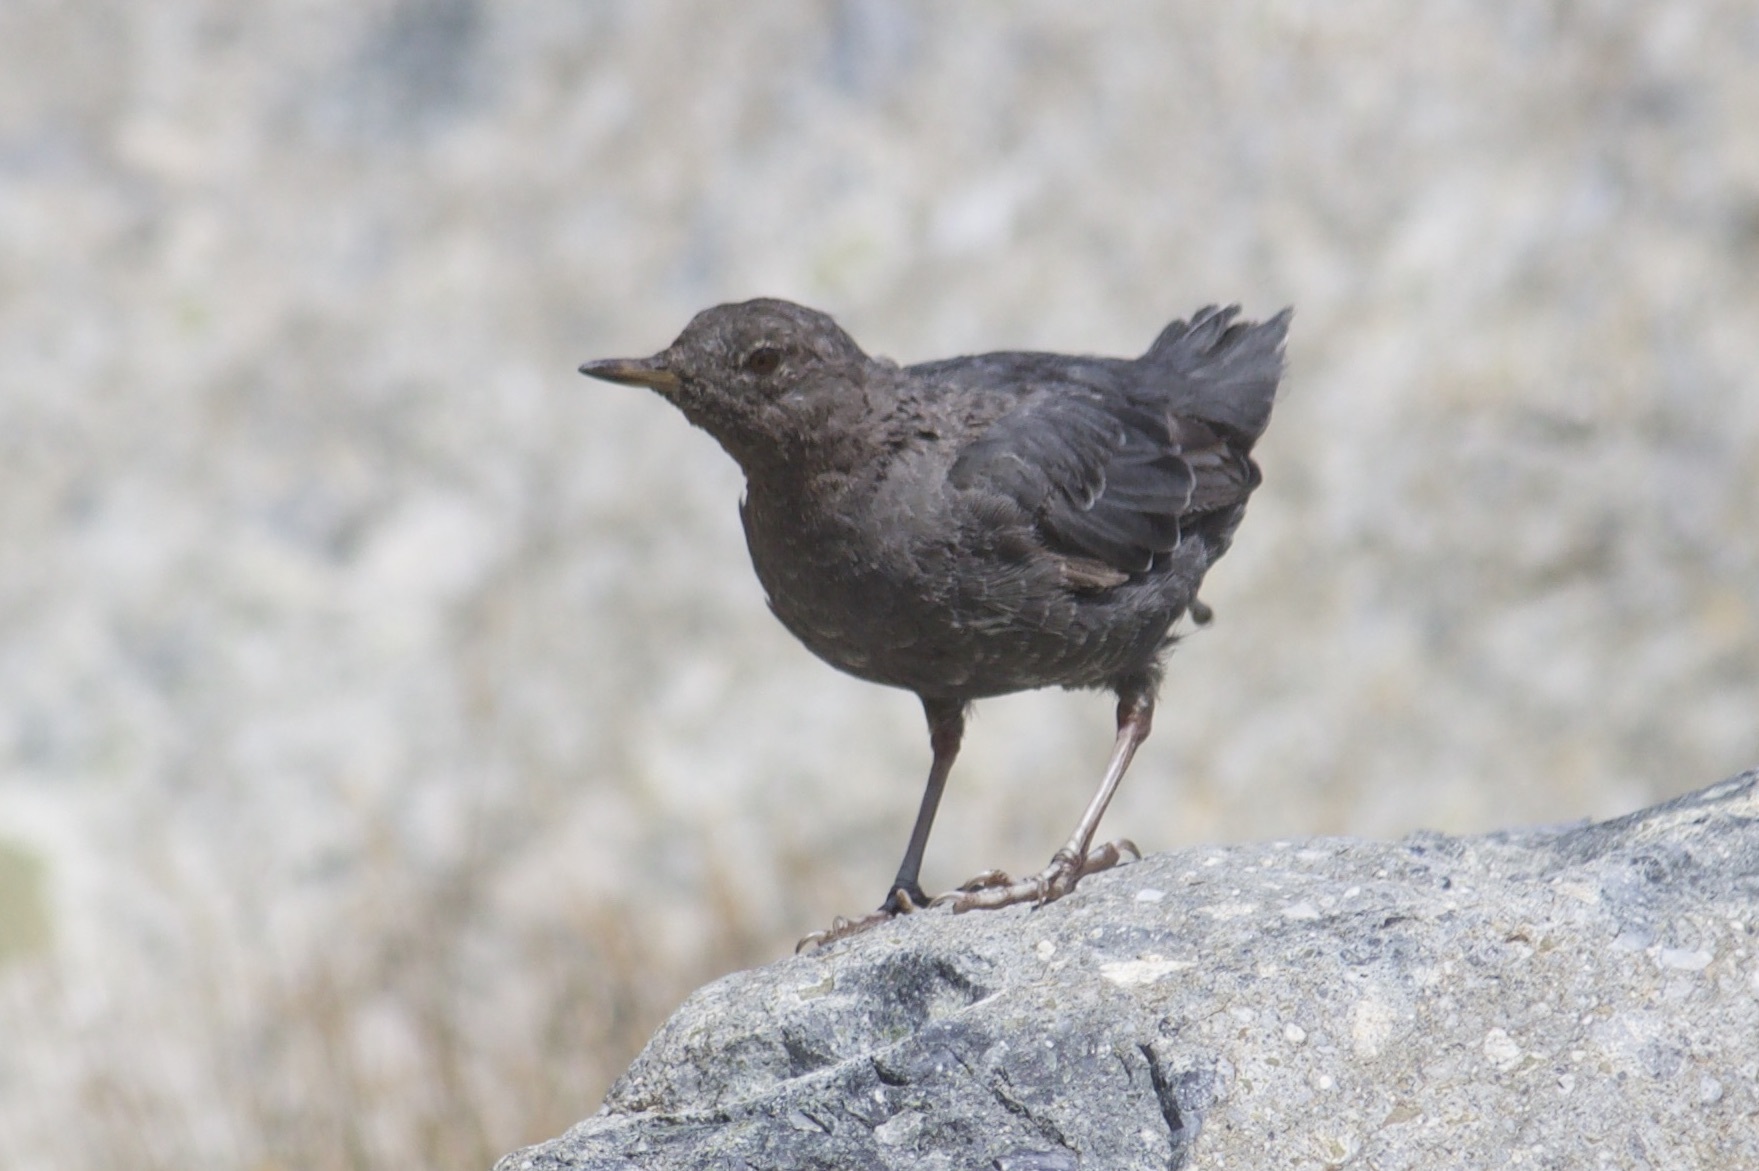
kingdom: Animalia
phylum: Chordata
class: Aves
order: Passeriformes
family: Cinclidae
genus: Cinclus
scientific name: Cinclus mexicanus
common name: American dipper
